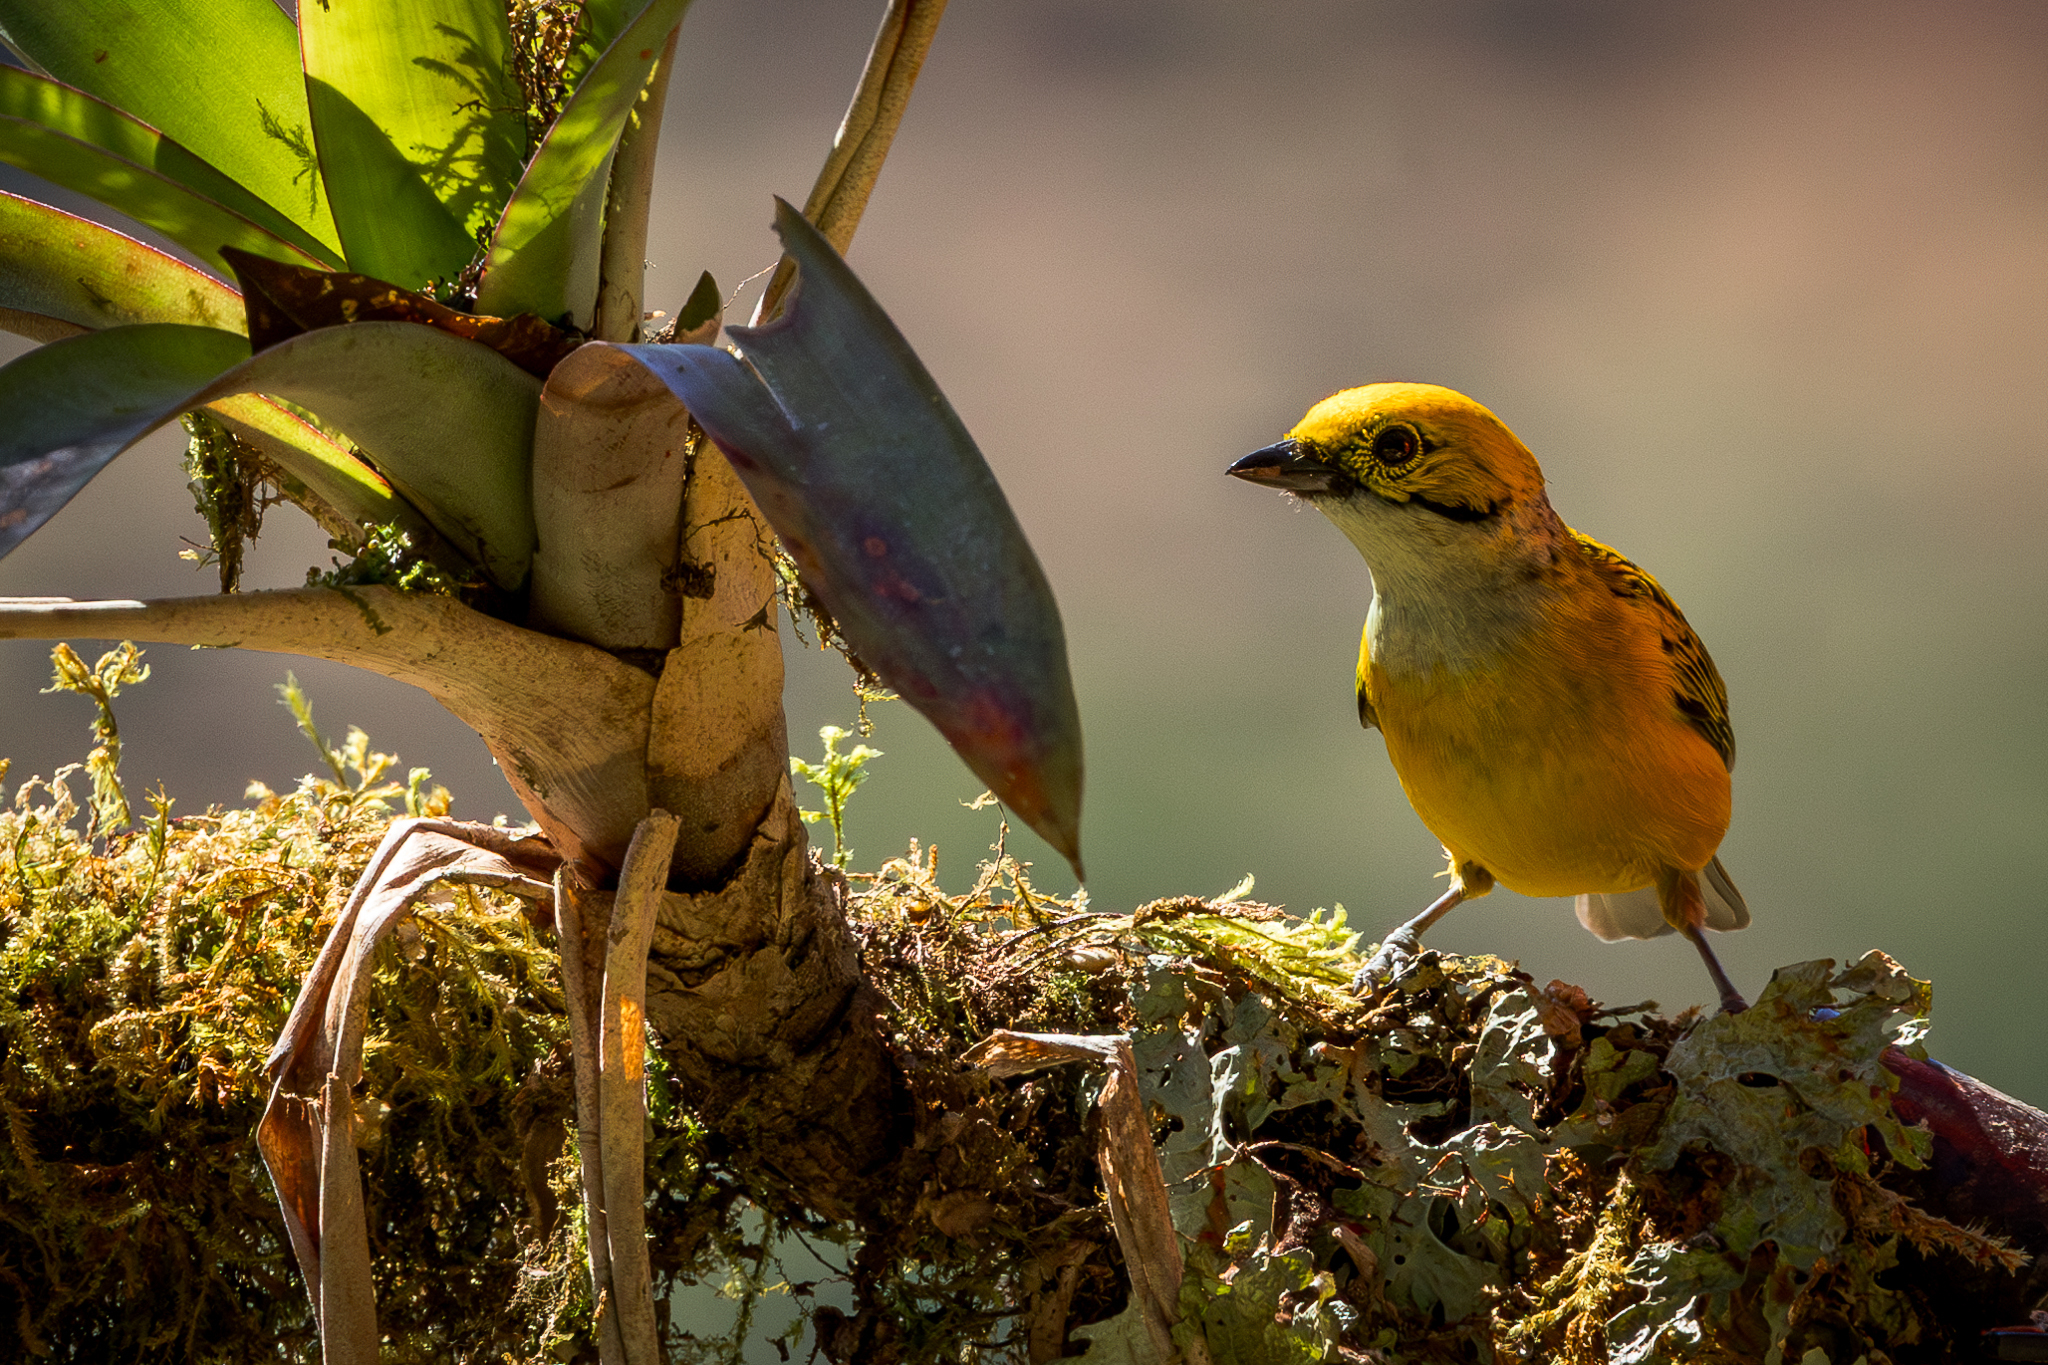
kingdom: Animalia
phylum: Chordata
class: Aves
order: Passeriformes
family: Thraupidae
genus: Tangara
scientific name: Tangara icterocephala
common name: Silver-throated tanager
